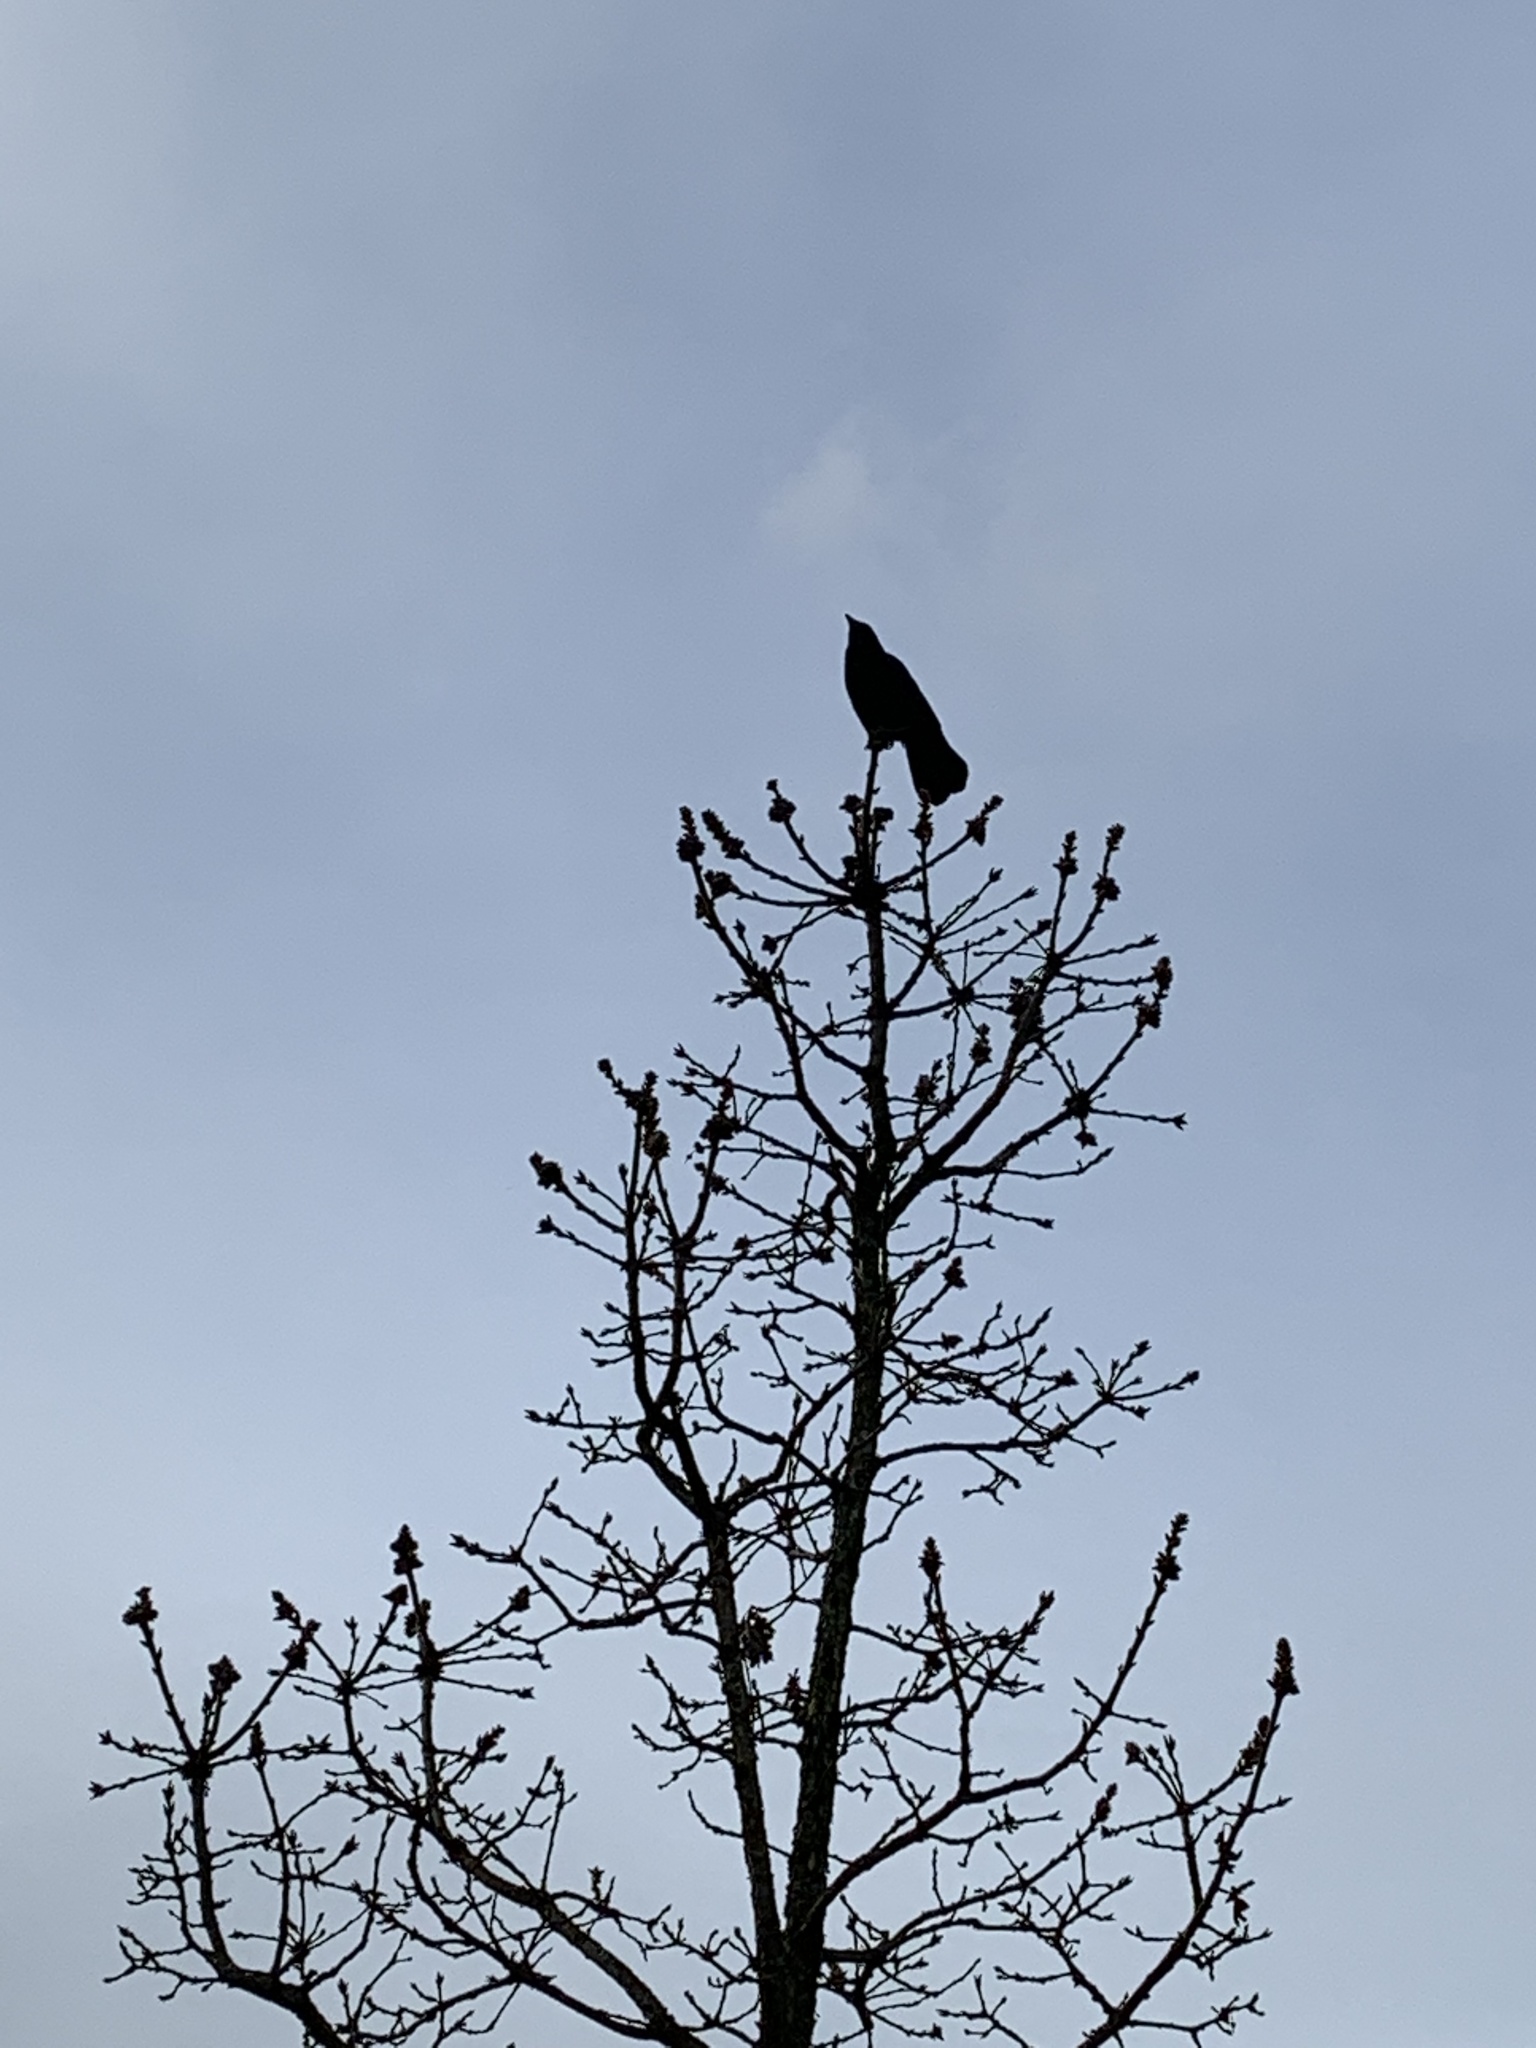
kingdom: Animalia
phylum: Chordata
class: Aves
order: Passeriformes
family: Corvidae
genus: Corvus
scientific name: Corvus brachyrhynchos
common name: American crow
